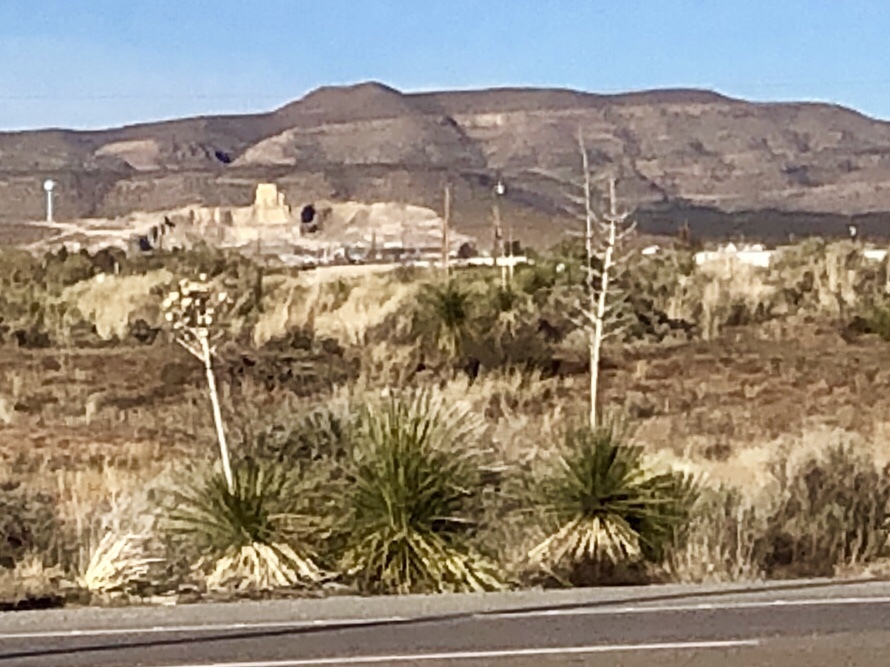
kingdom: Plantae
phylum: Tracheophyta
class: Liliopsida
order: Asparagales
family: Asparagaceae
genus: Yucca
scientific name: Yucca elata
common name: Palmella
